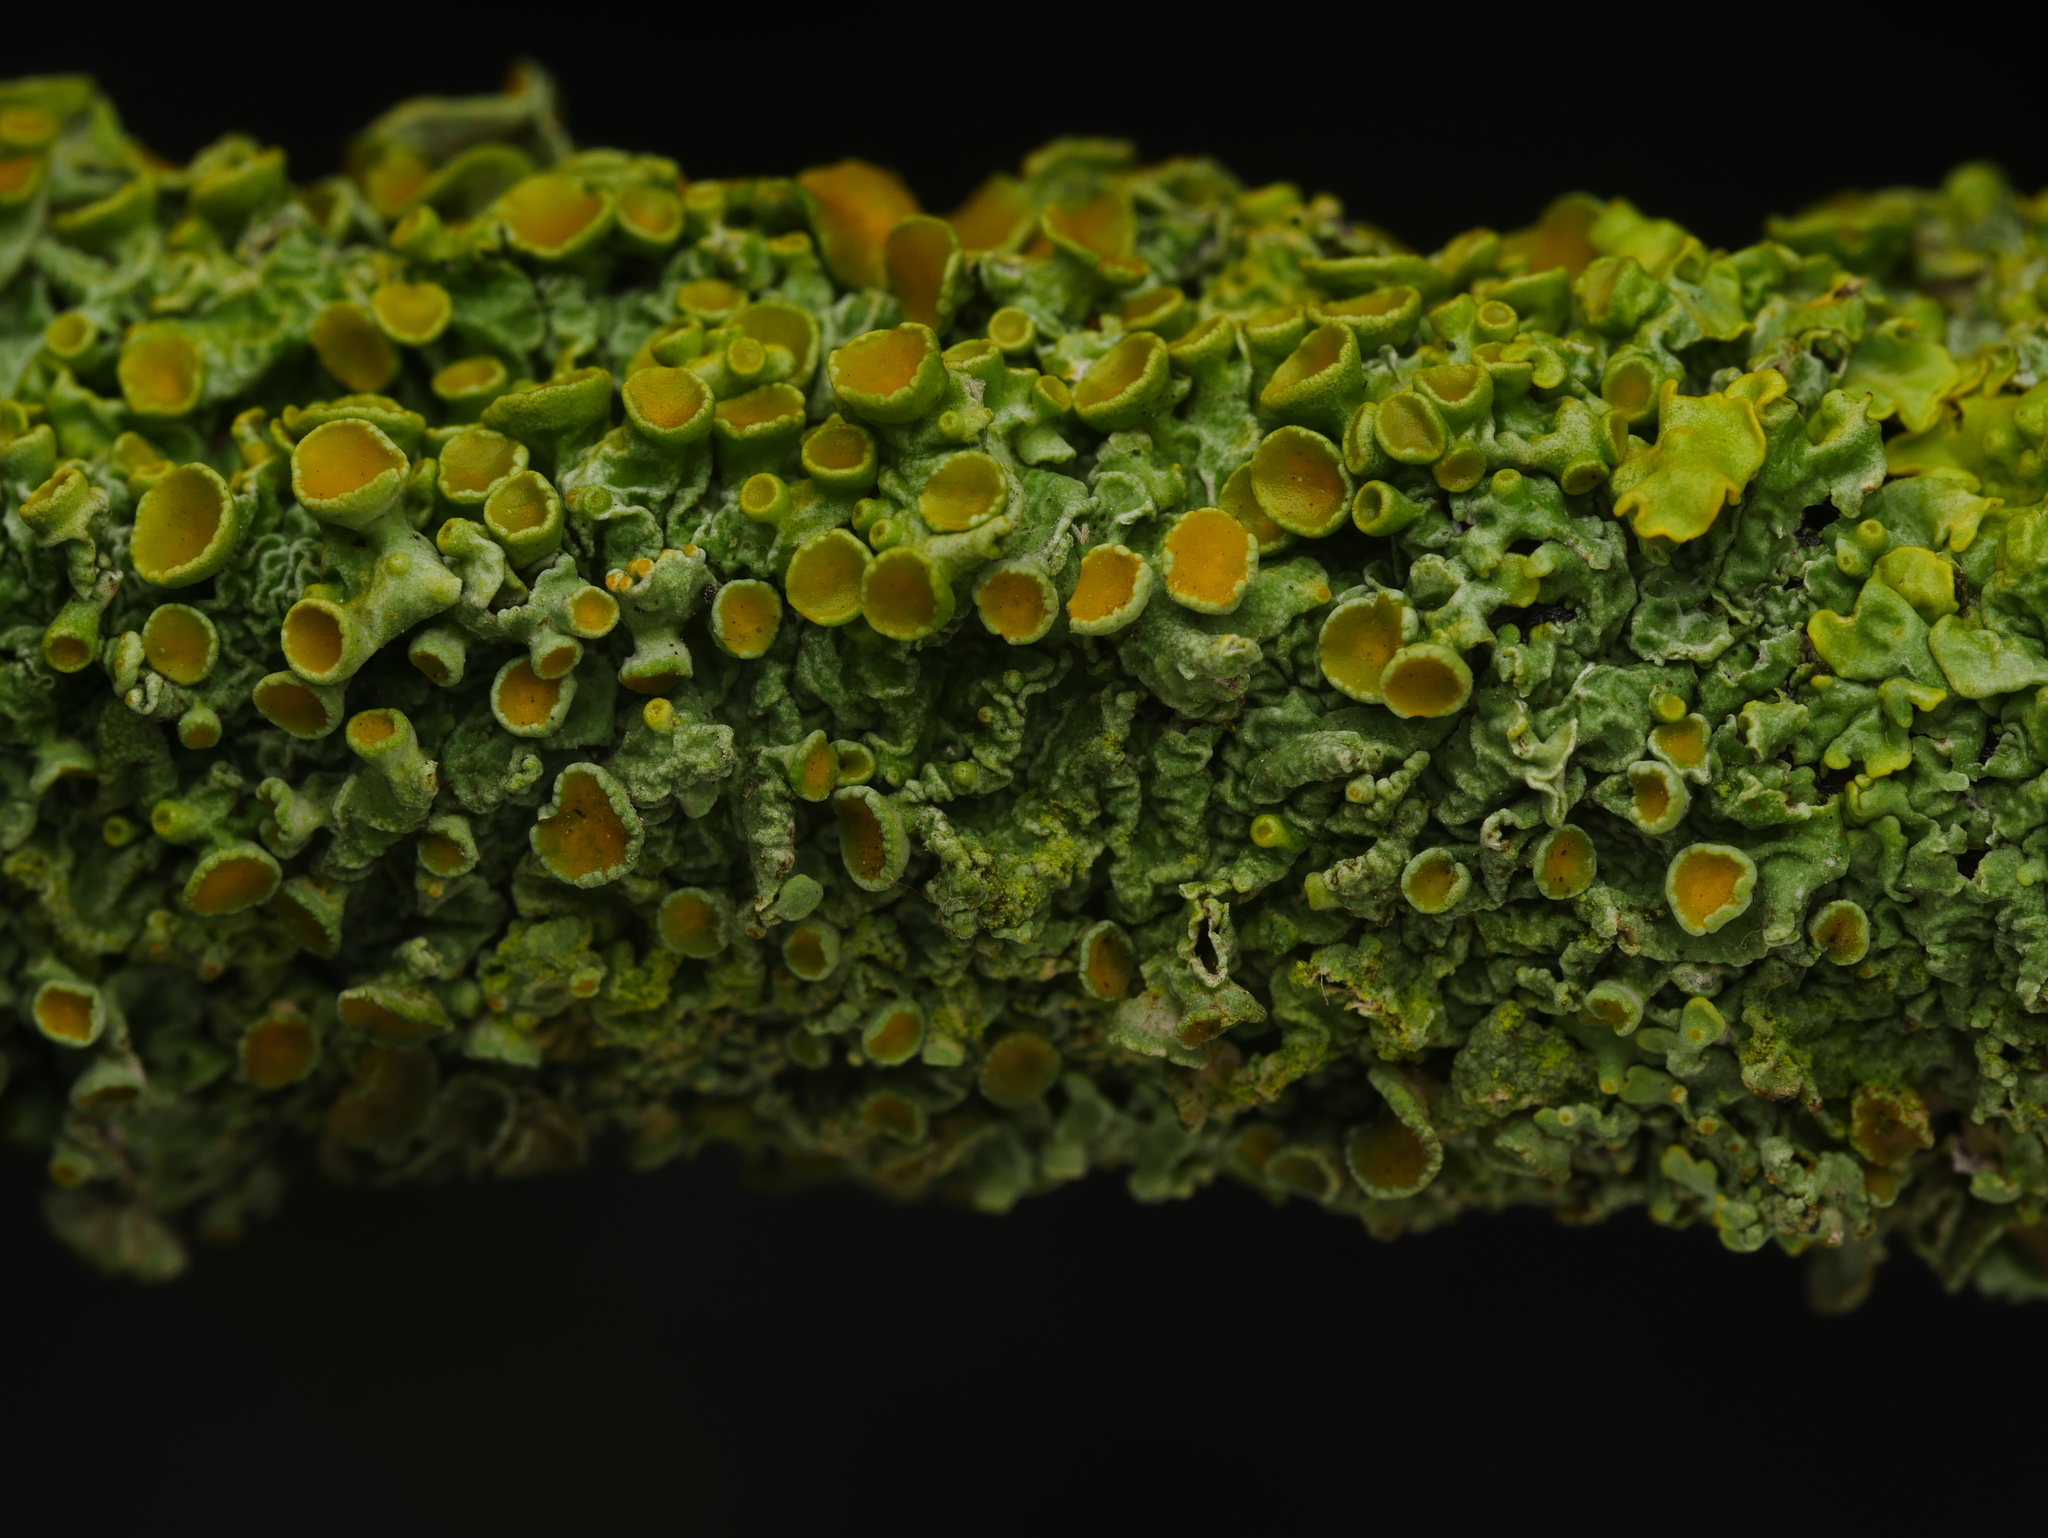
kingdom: Fungi
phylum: Ascomycota
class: Lecanoromycetes
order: Teloschistales
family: Teloschistaceae
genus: Xanthoria
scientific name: Xanthoria parietina
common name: Common orange lichen
